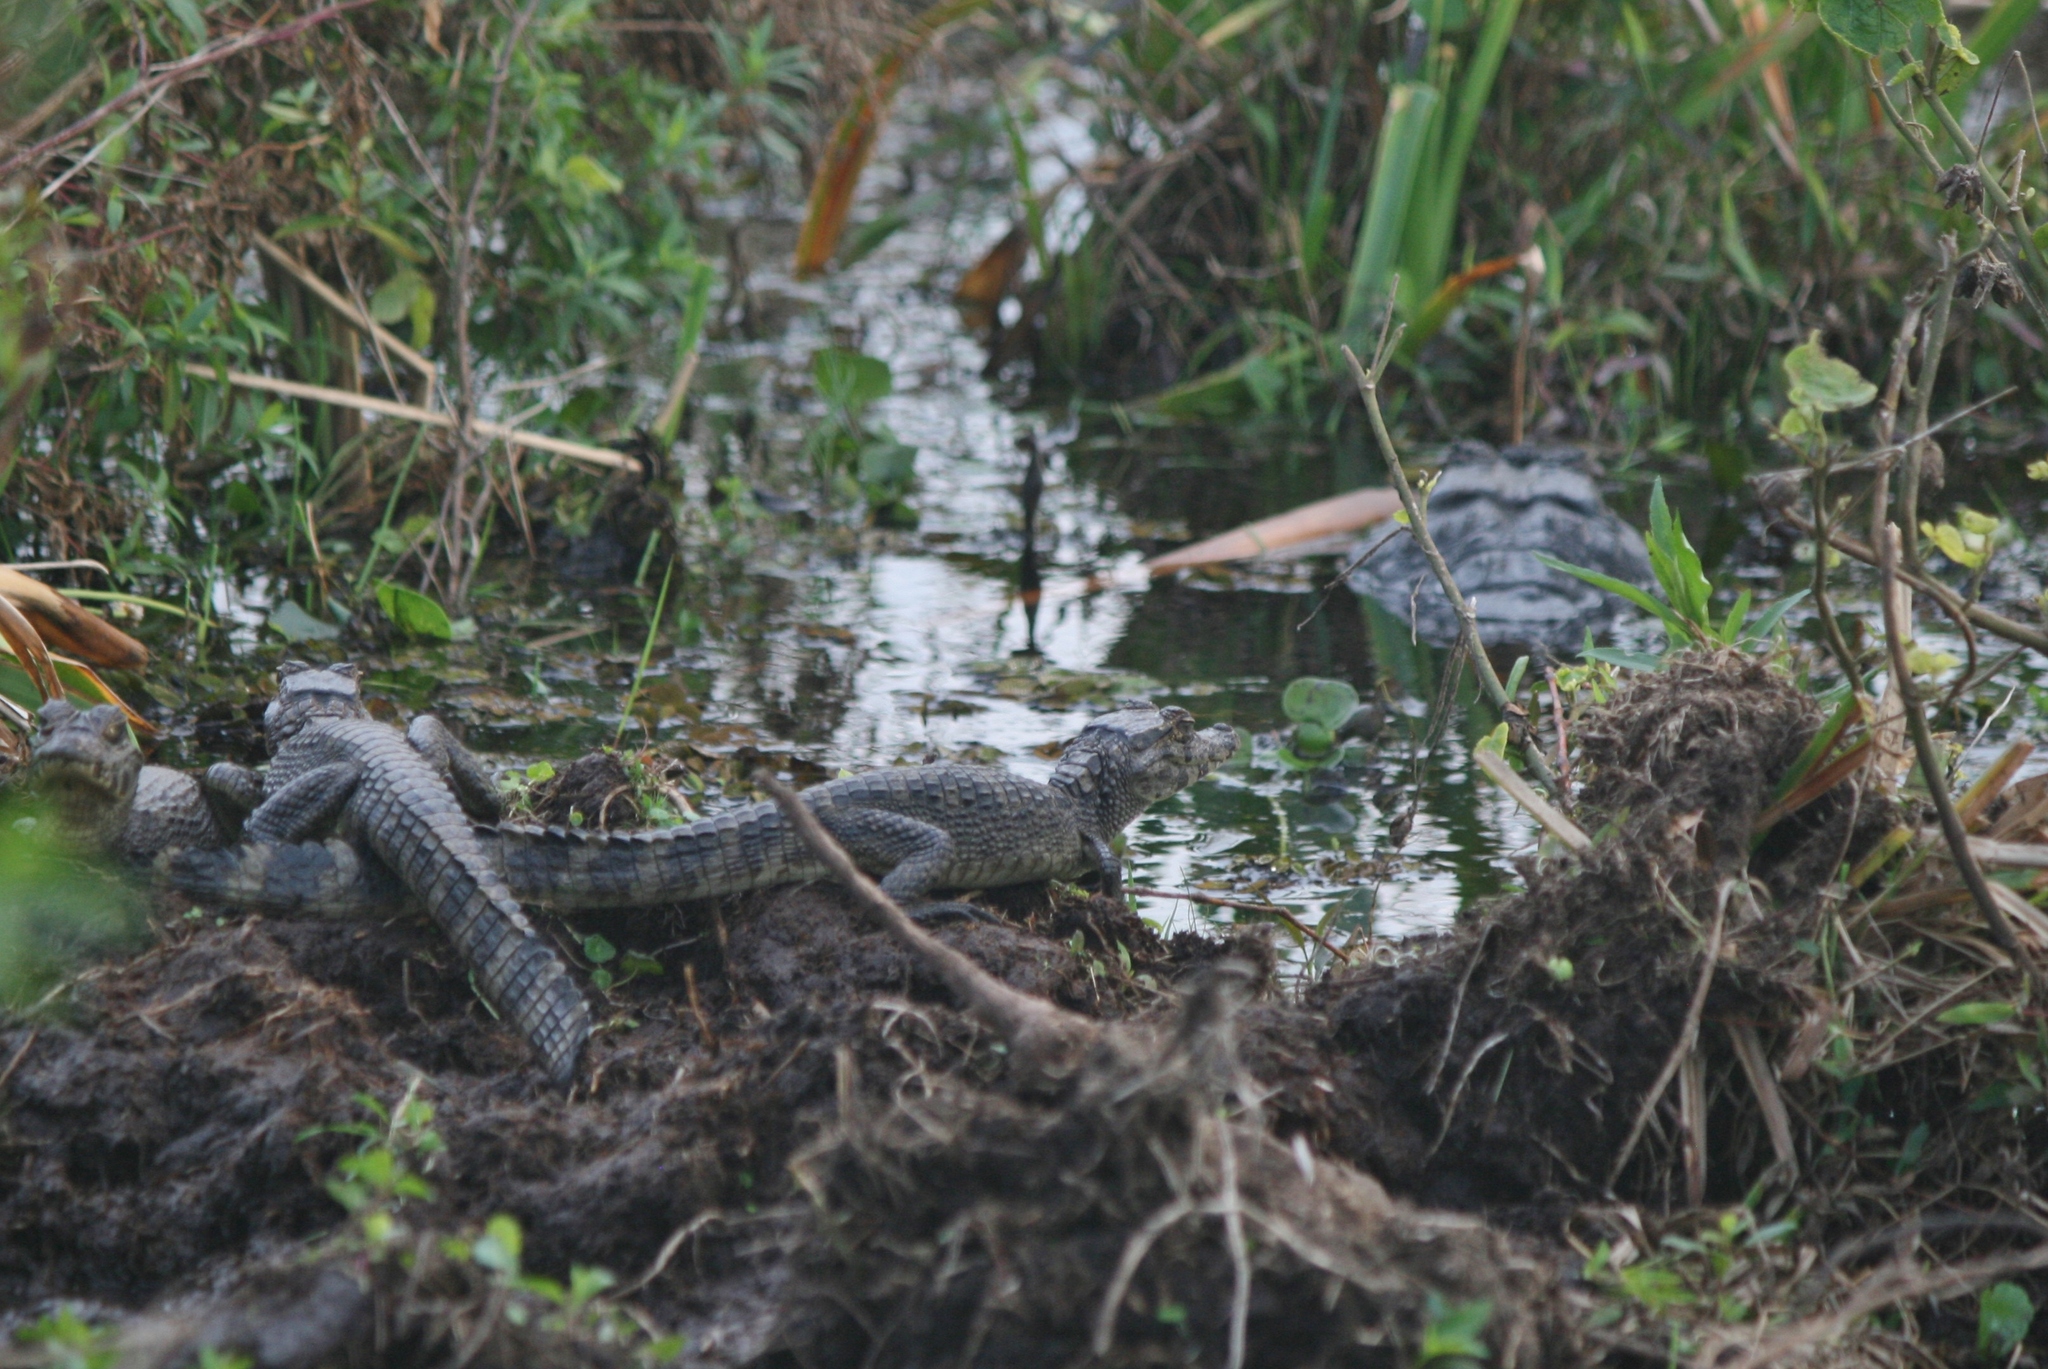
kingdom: Animalia
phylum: Chordata
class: Crocodylia
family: Alligatoridae
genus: Caiman
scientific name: Caiman yacare
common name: Yacare caiman
